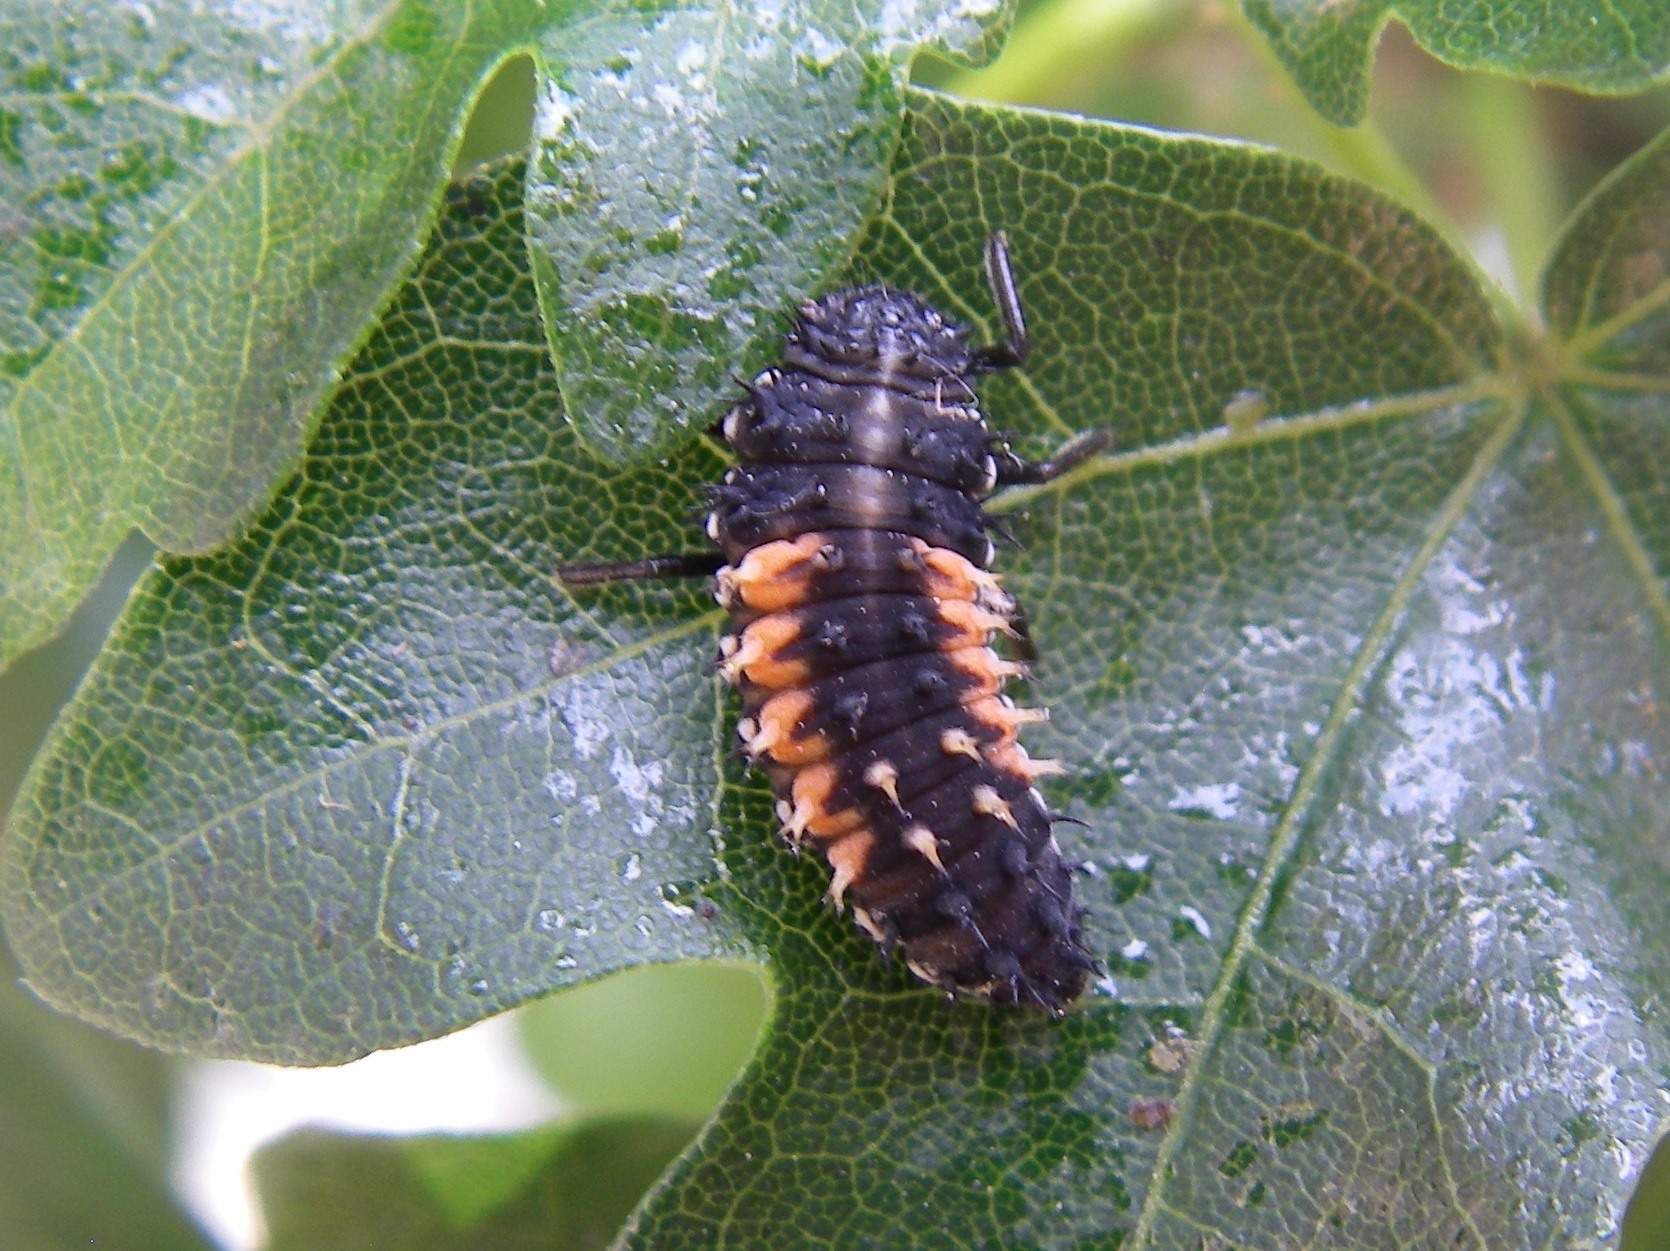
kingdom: Animalia
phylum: Arthropoda
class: Insecta
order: Coleoptera
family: Coccinellidae
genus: Harmonia
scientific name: Harmonia axyridis
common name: Harlequin ladybird
